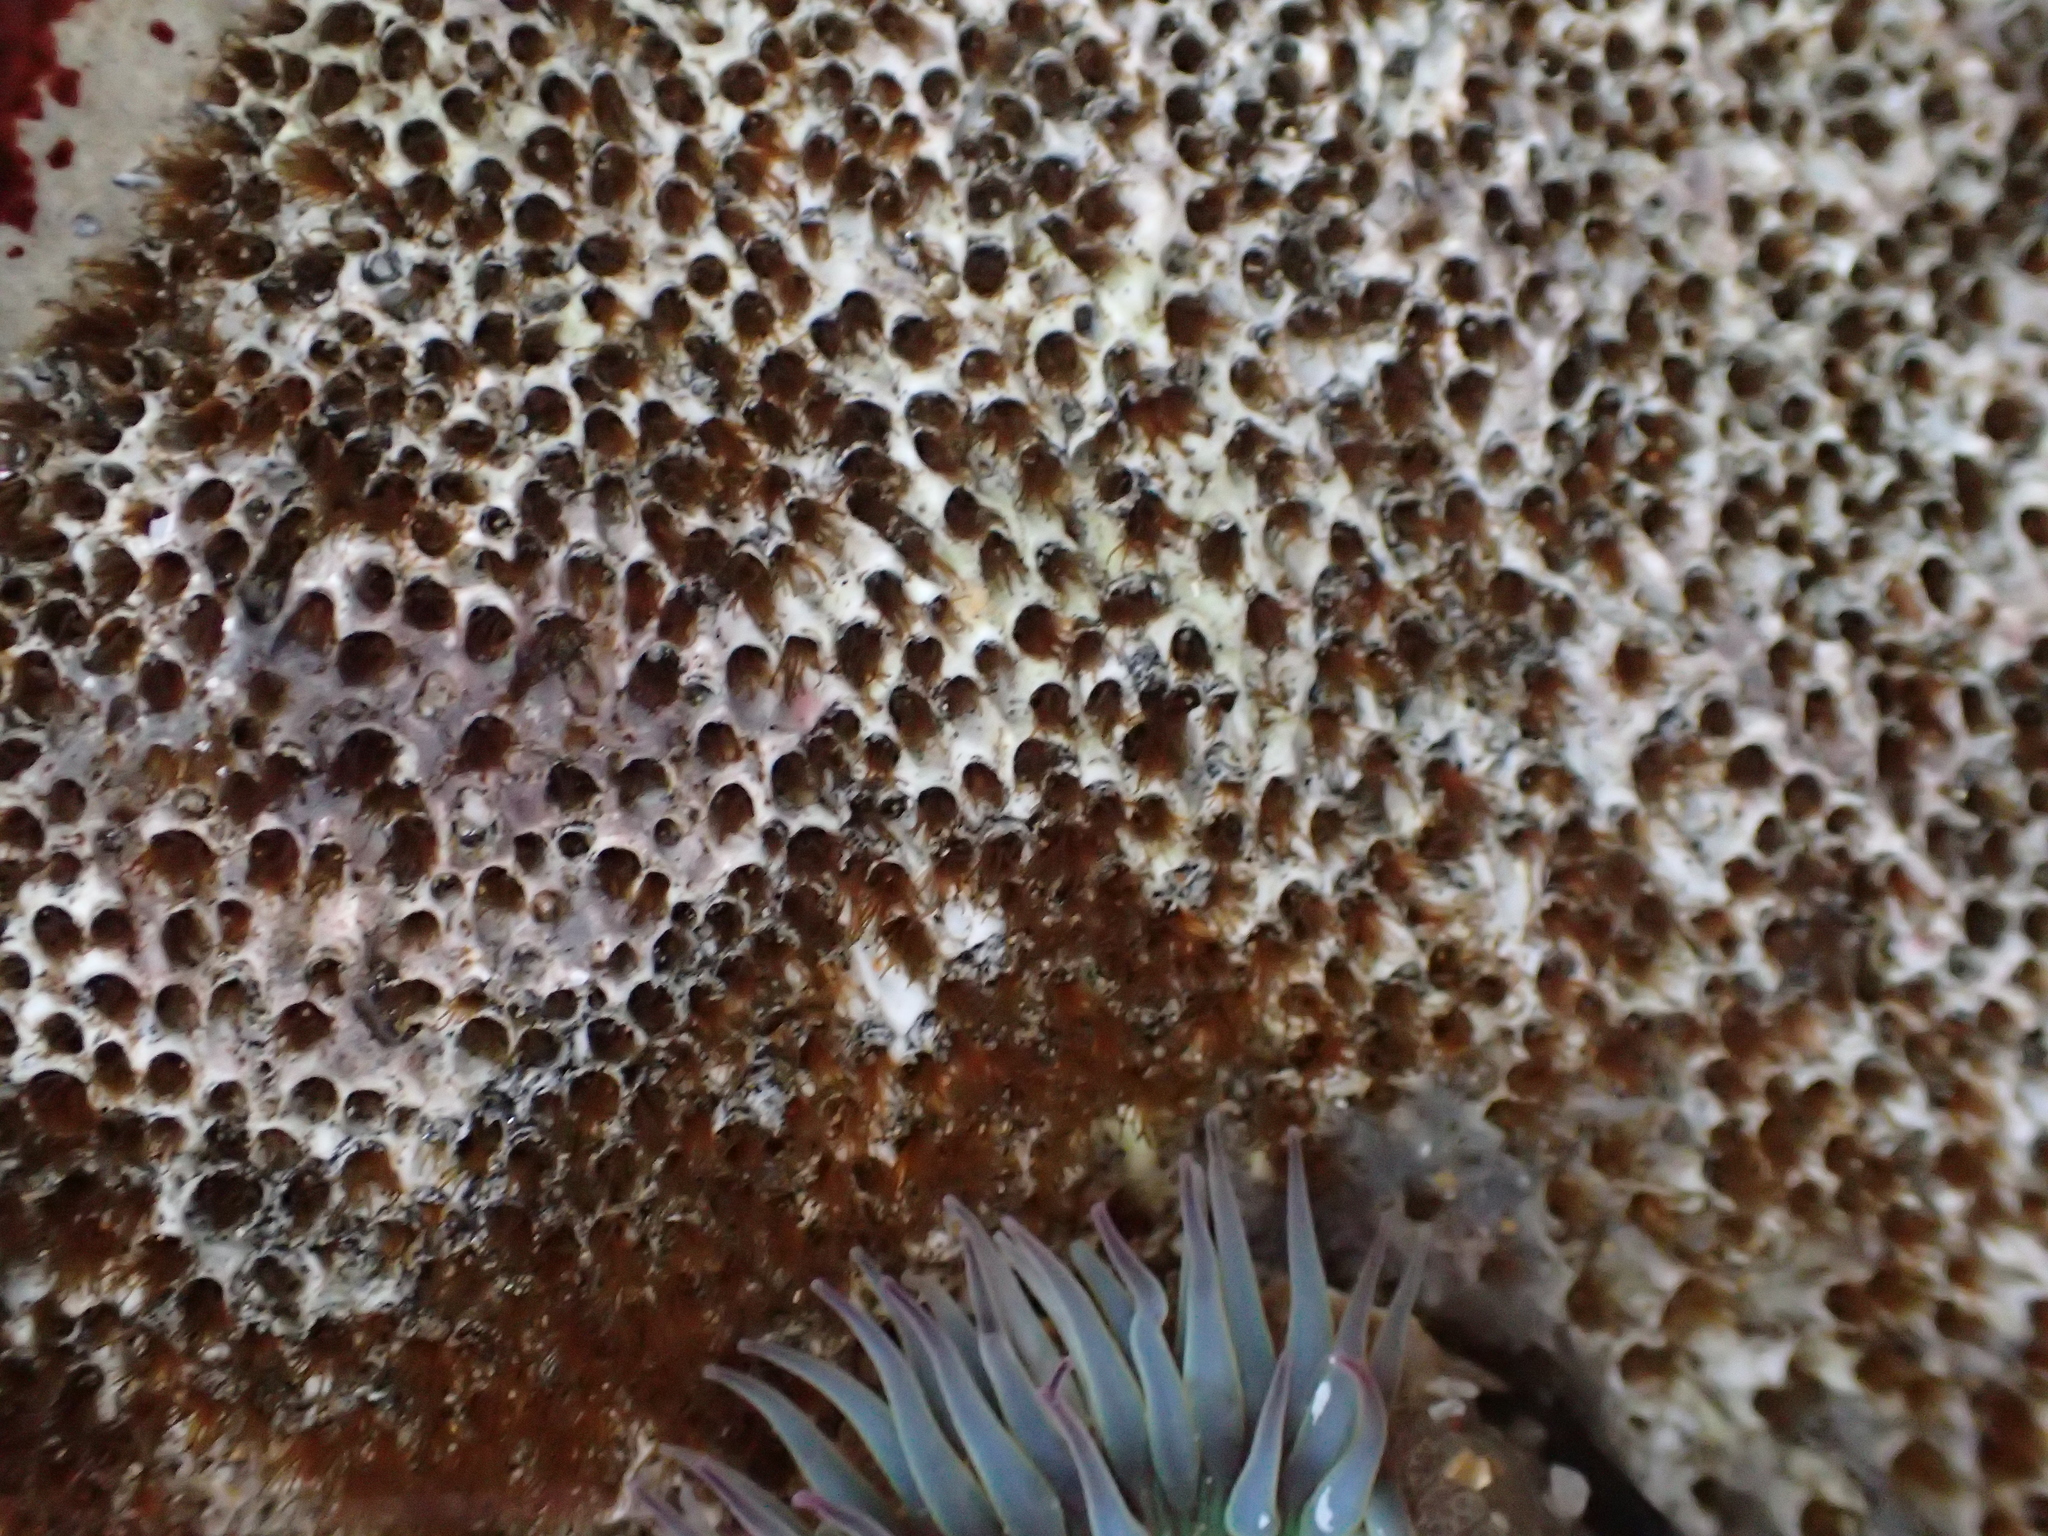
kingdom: Animalia
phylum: Annelida
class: Polychaeta
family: Cirratulidae
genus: Dodecaceria
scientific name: Dodecaceria pacifica
